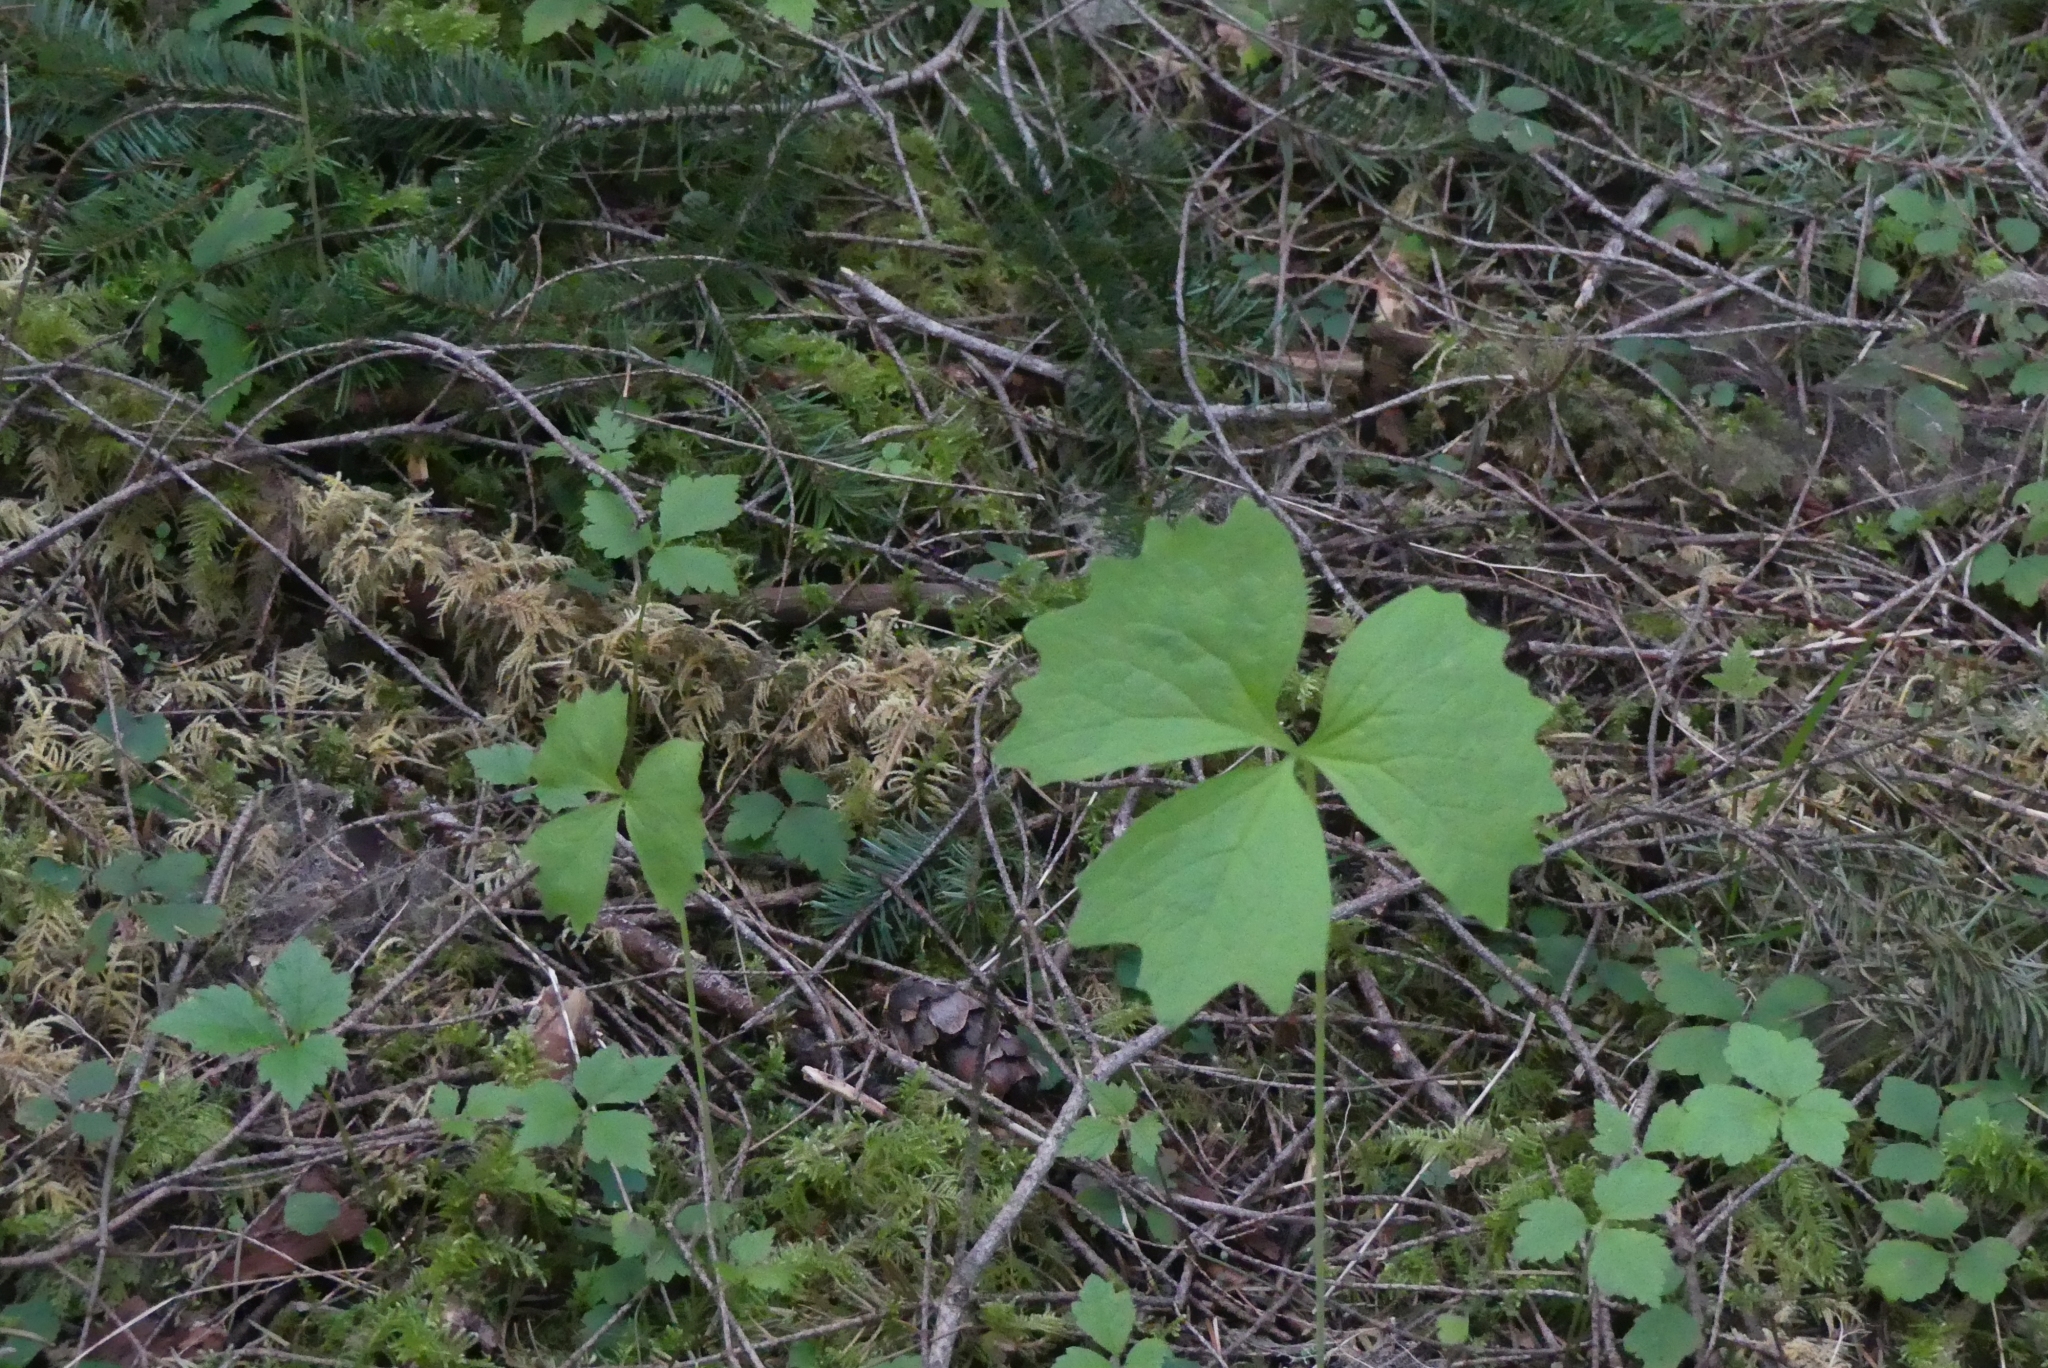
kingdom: Plantae
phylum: Tracheophyta
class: Magnoliopsida
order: Ranunculales
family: Berberidaceae
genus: Achlys
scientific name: Achlys triphylla
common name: Vanilla-leaf
